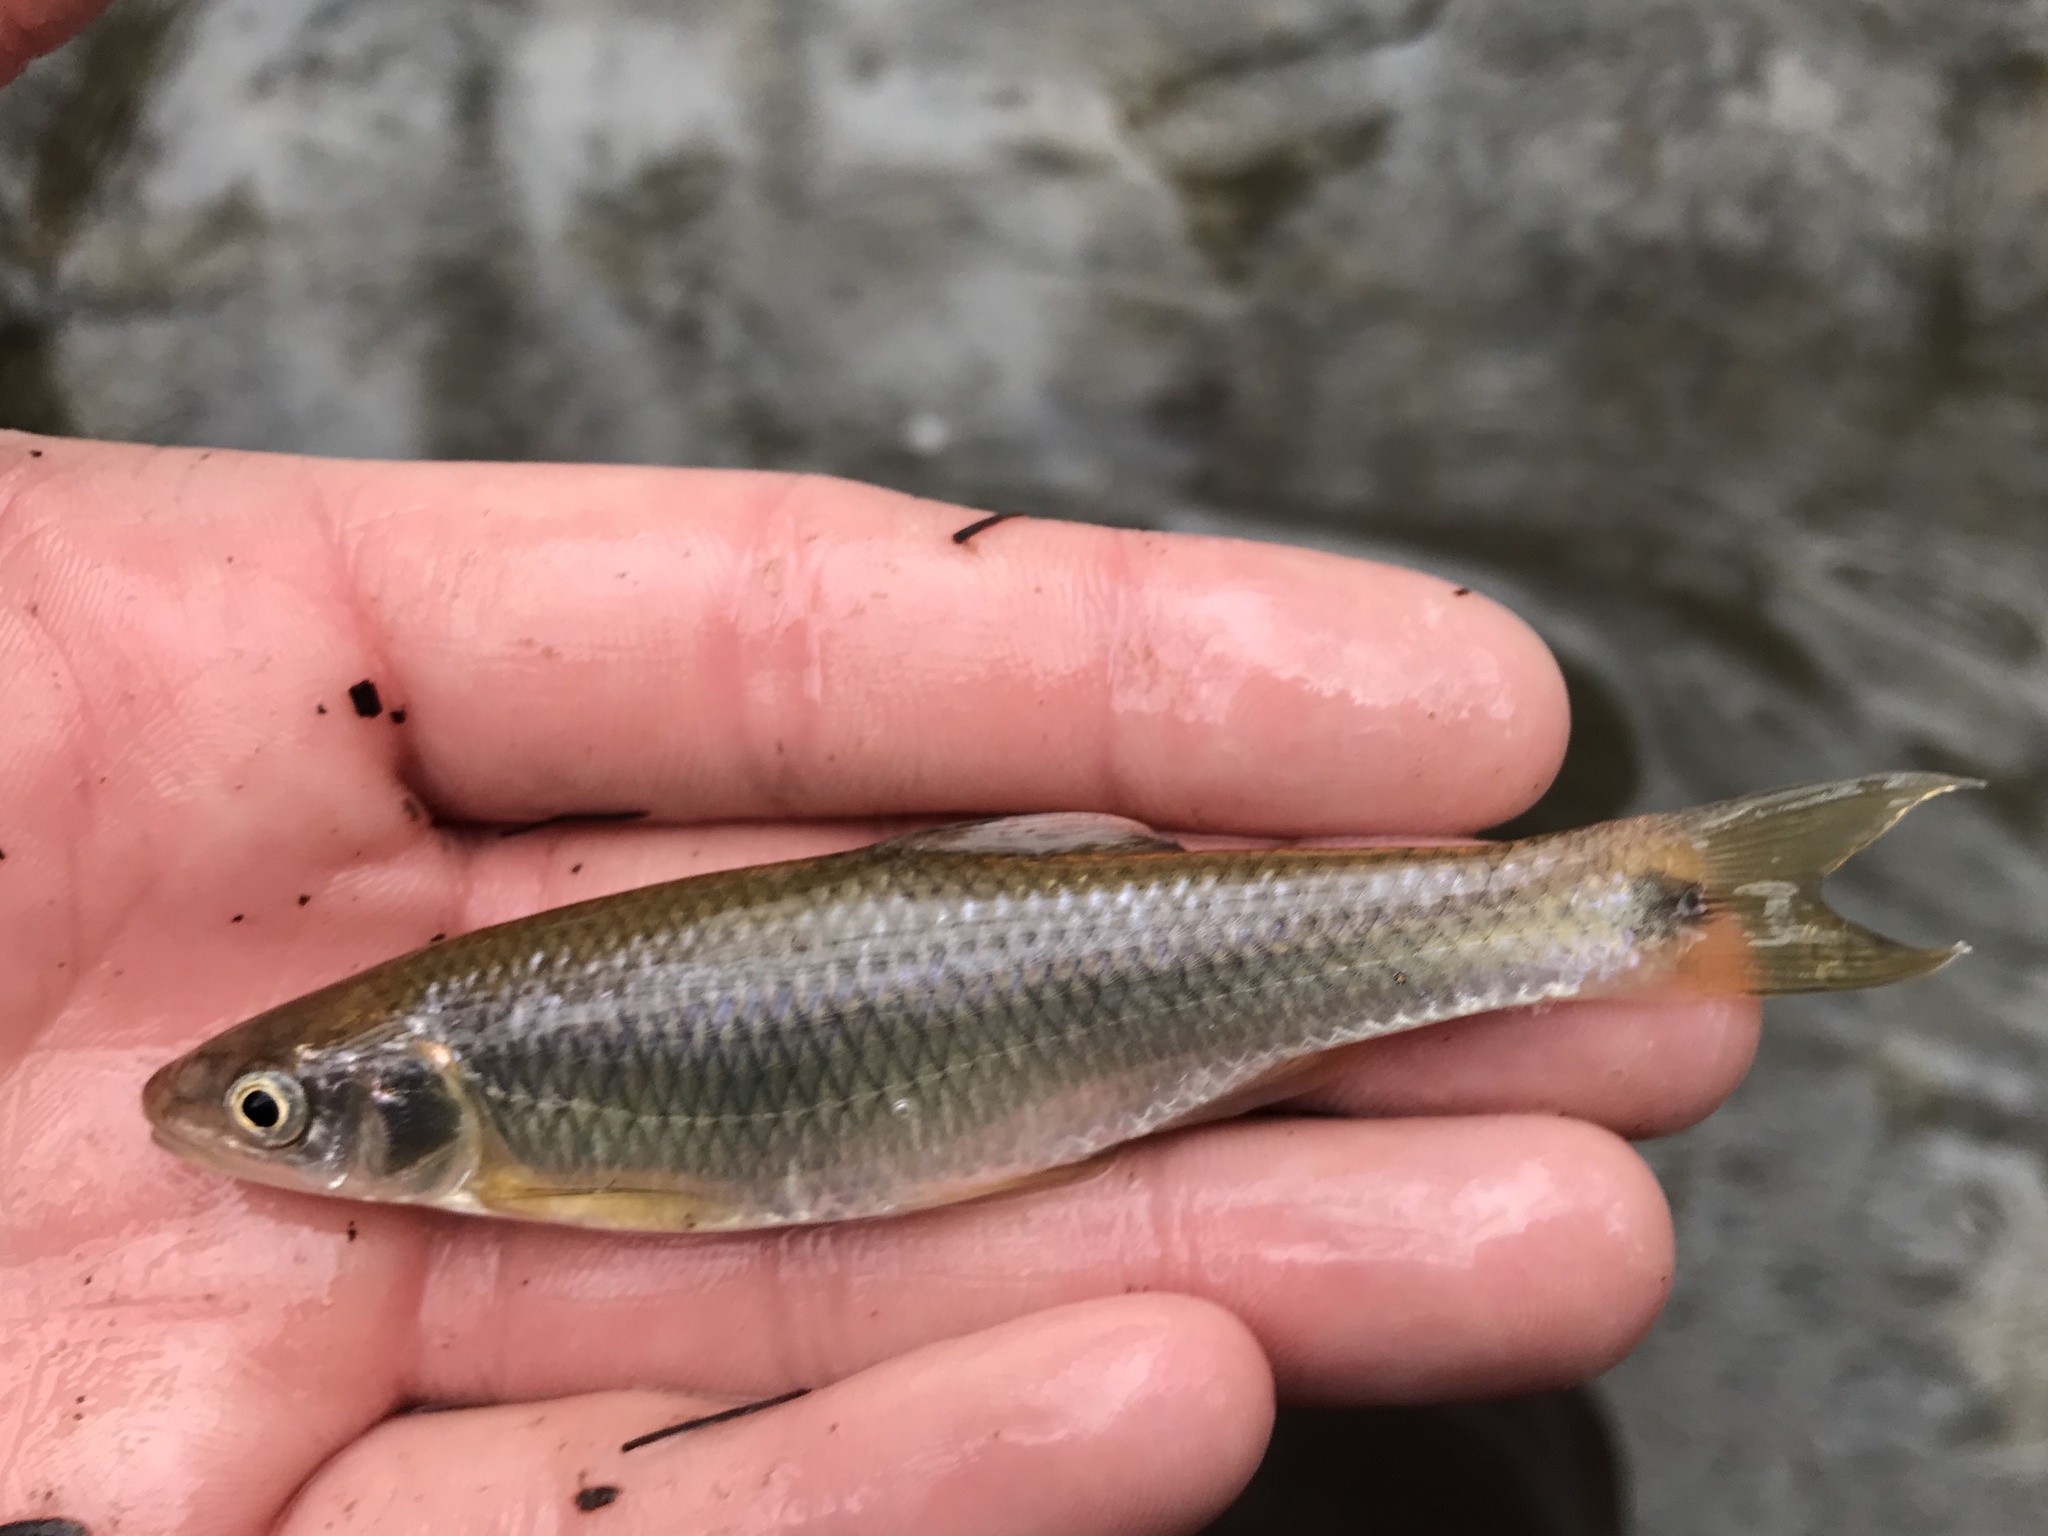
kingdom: Animalia
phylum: Chordata
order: Cypriniformes
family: Cyprinidae
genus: Cyprinella
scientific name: Cyprinella venusta
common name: Blacktail shiner
